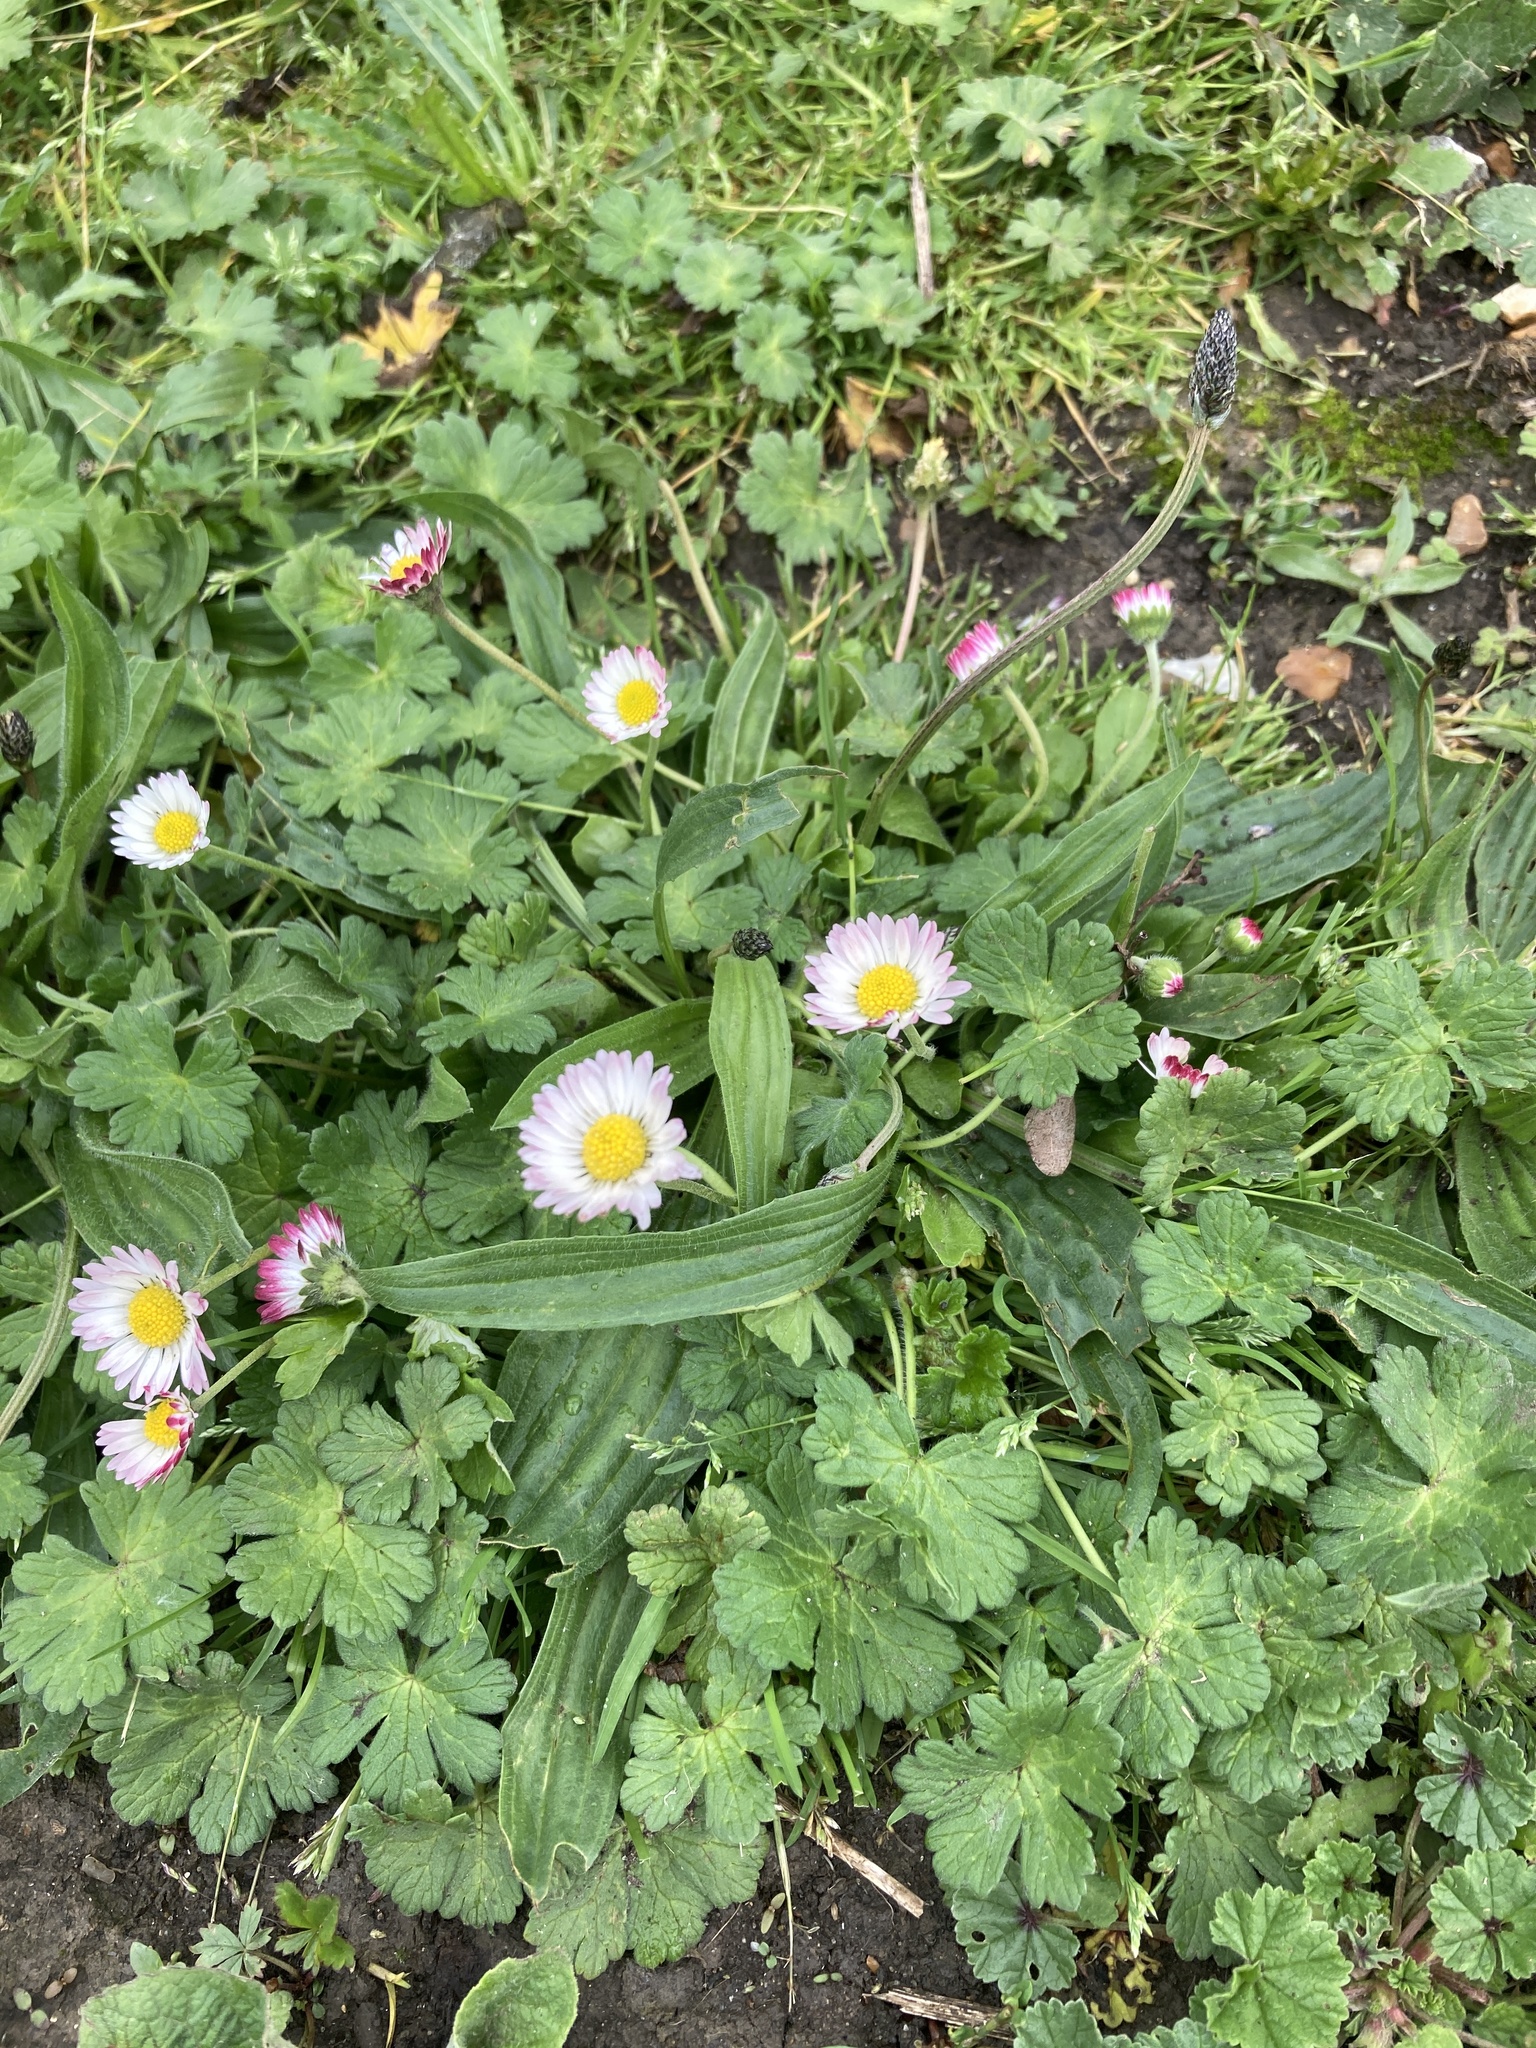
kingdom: Plantae
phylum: Tracheophyta
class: Magnoliopsida
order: Asterales
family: Asteraceae
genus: Bellis
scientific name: Bellis perennis
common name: Lawndaisy
